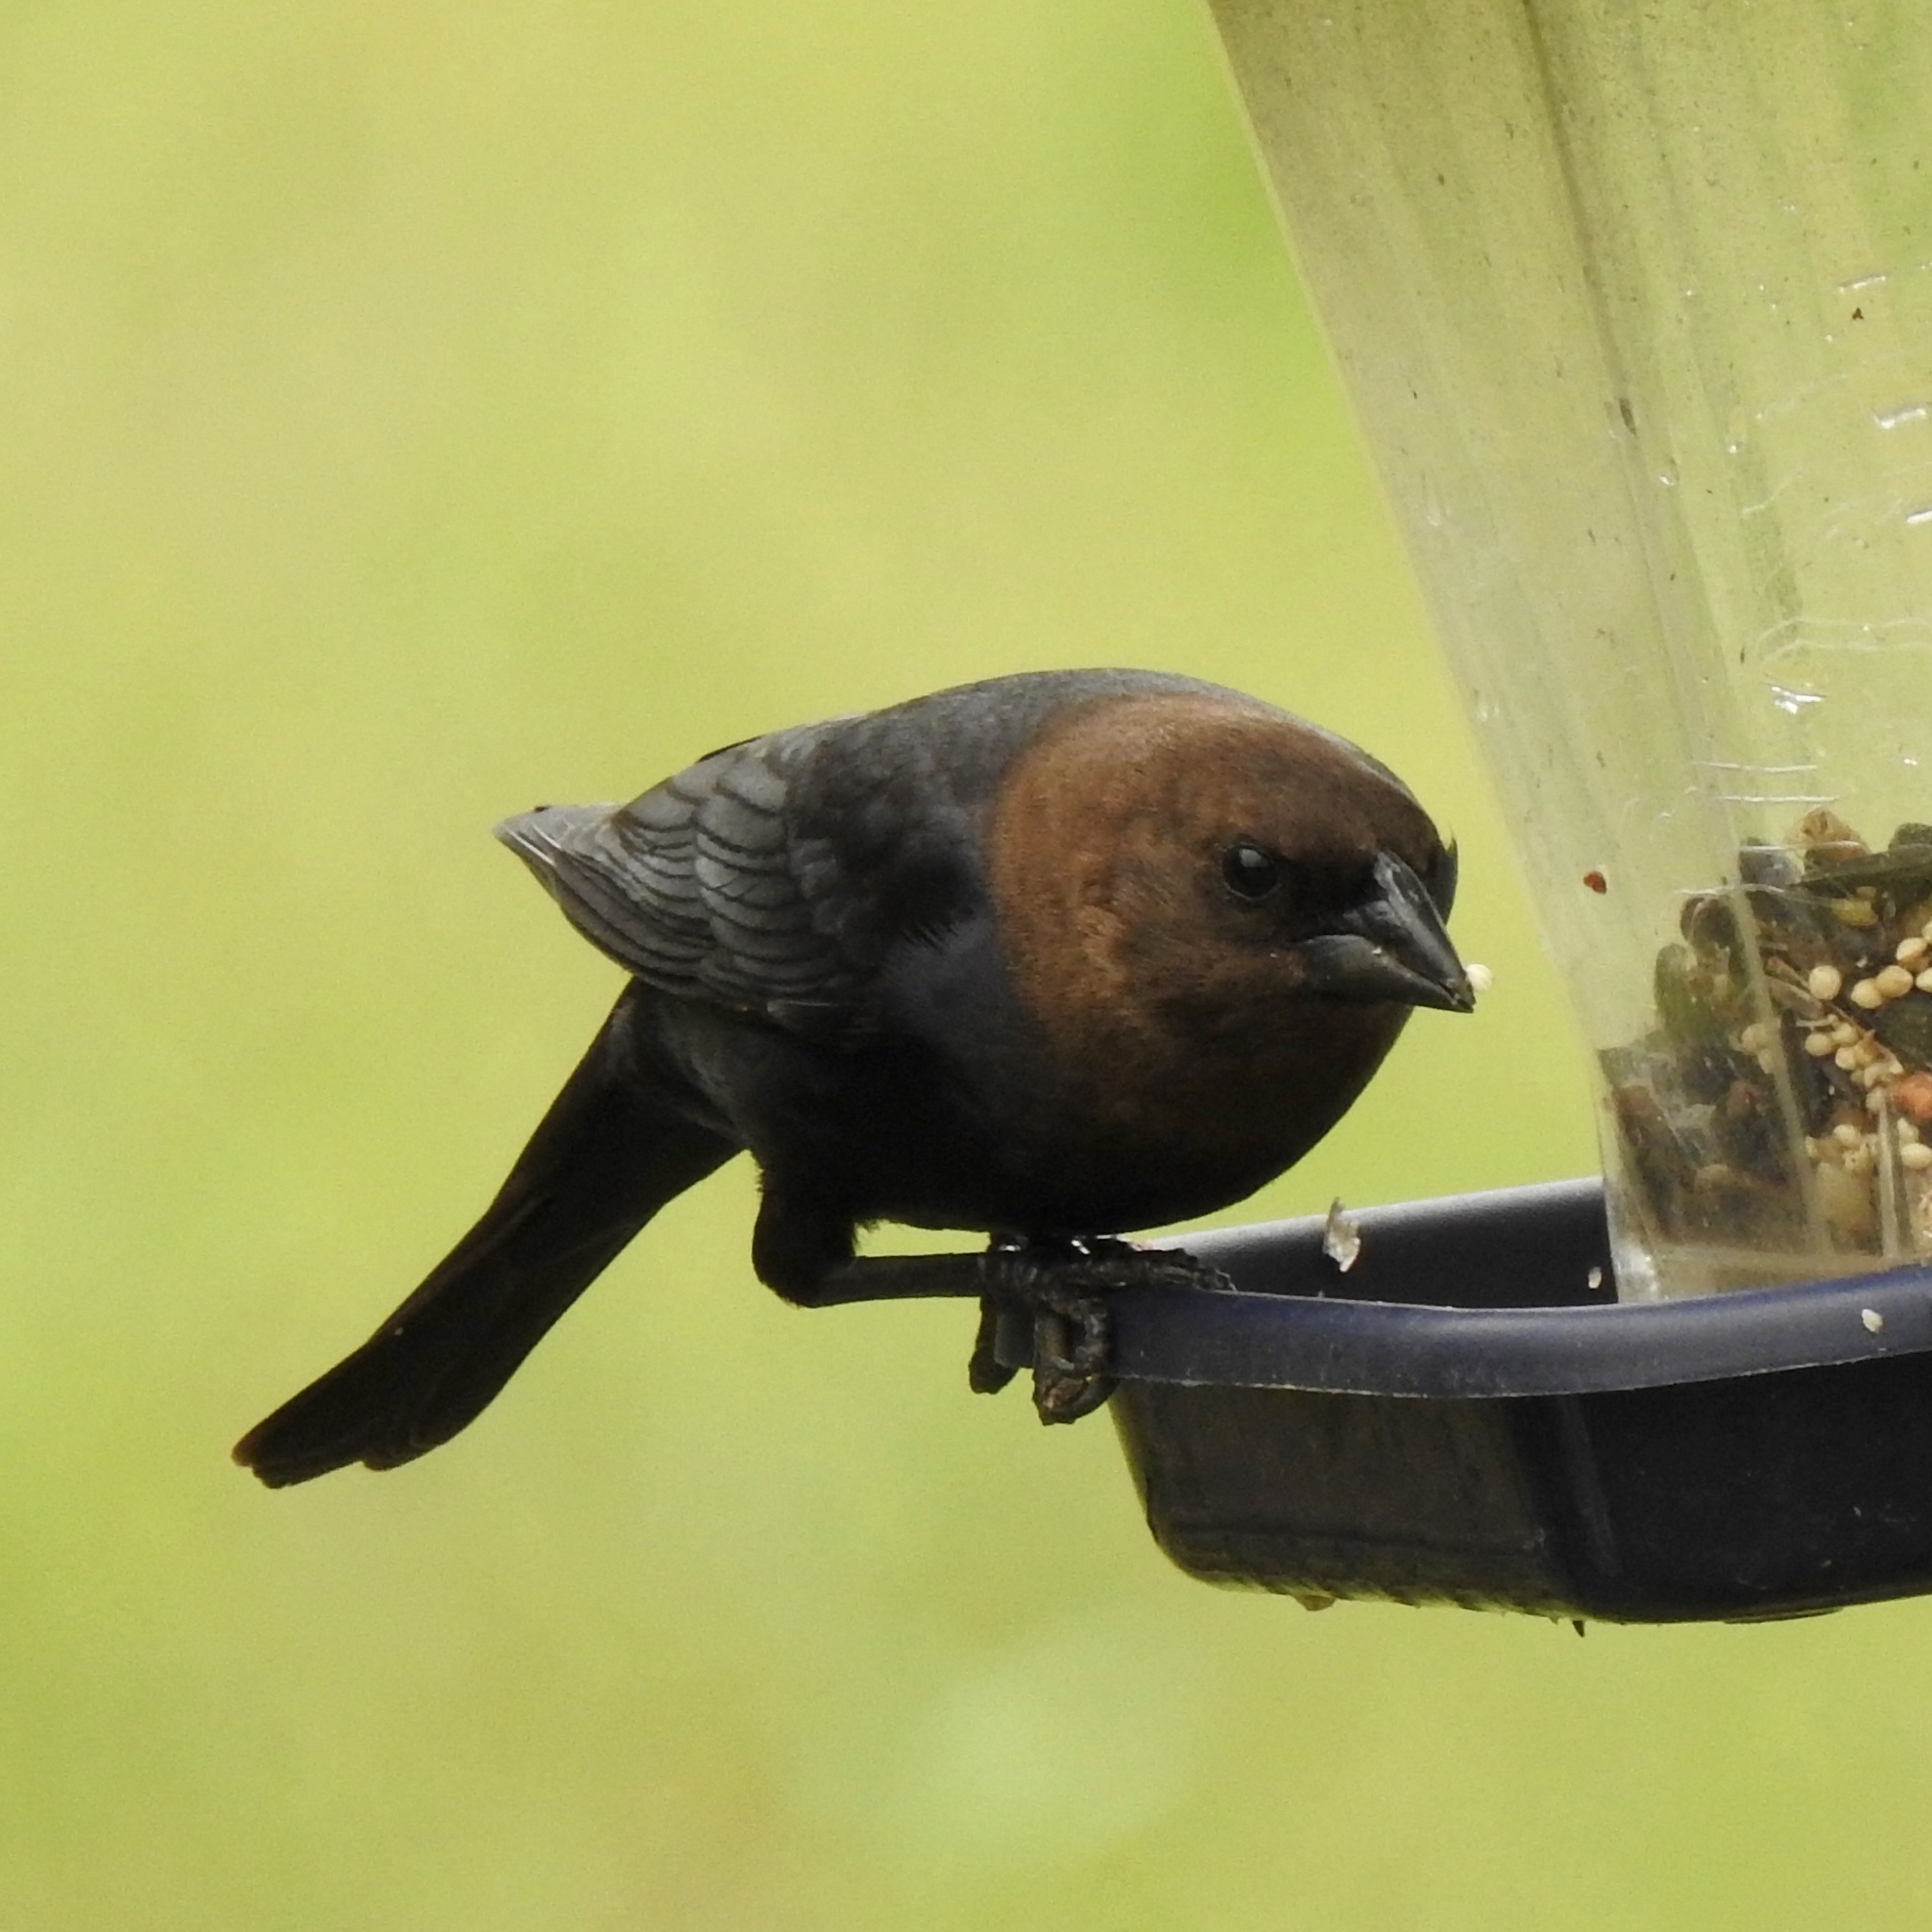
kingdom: Animalia
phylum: Chordata
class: Aves
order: Passeriformes
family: Icteridae
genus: Molothrus
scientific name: Molothrus ater
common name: Brown-headed cowbird
